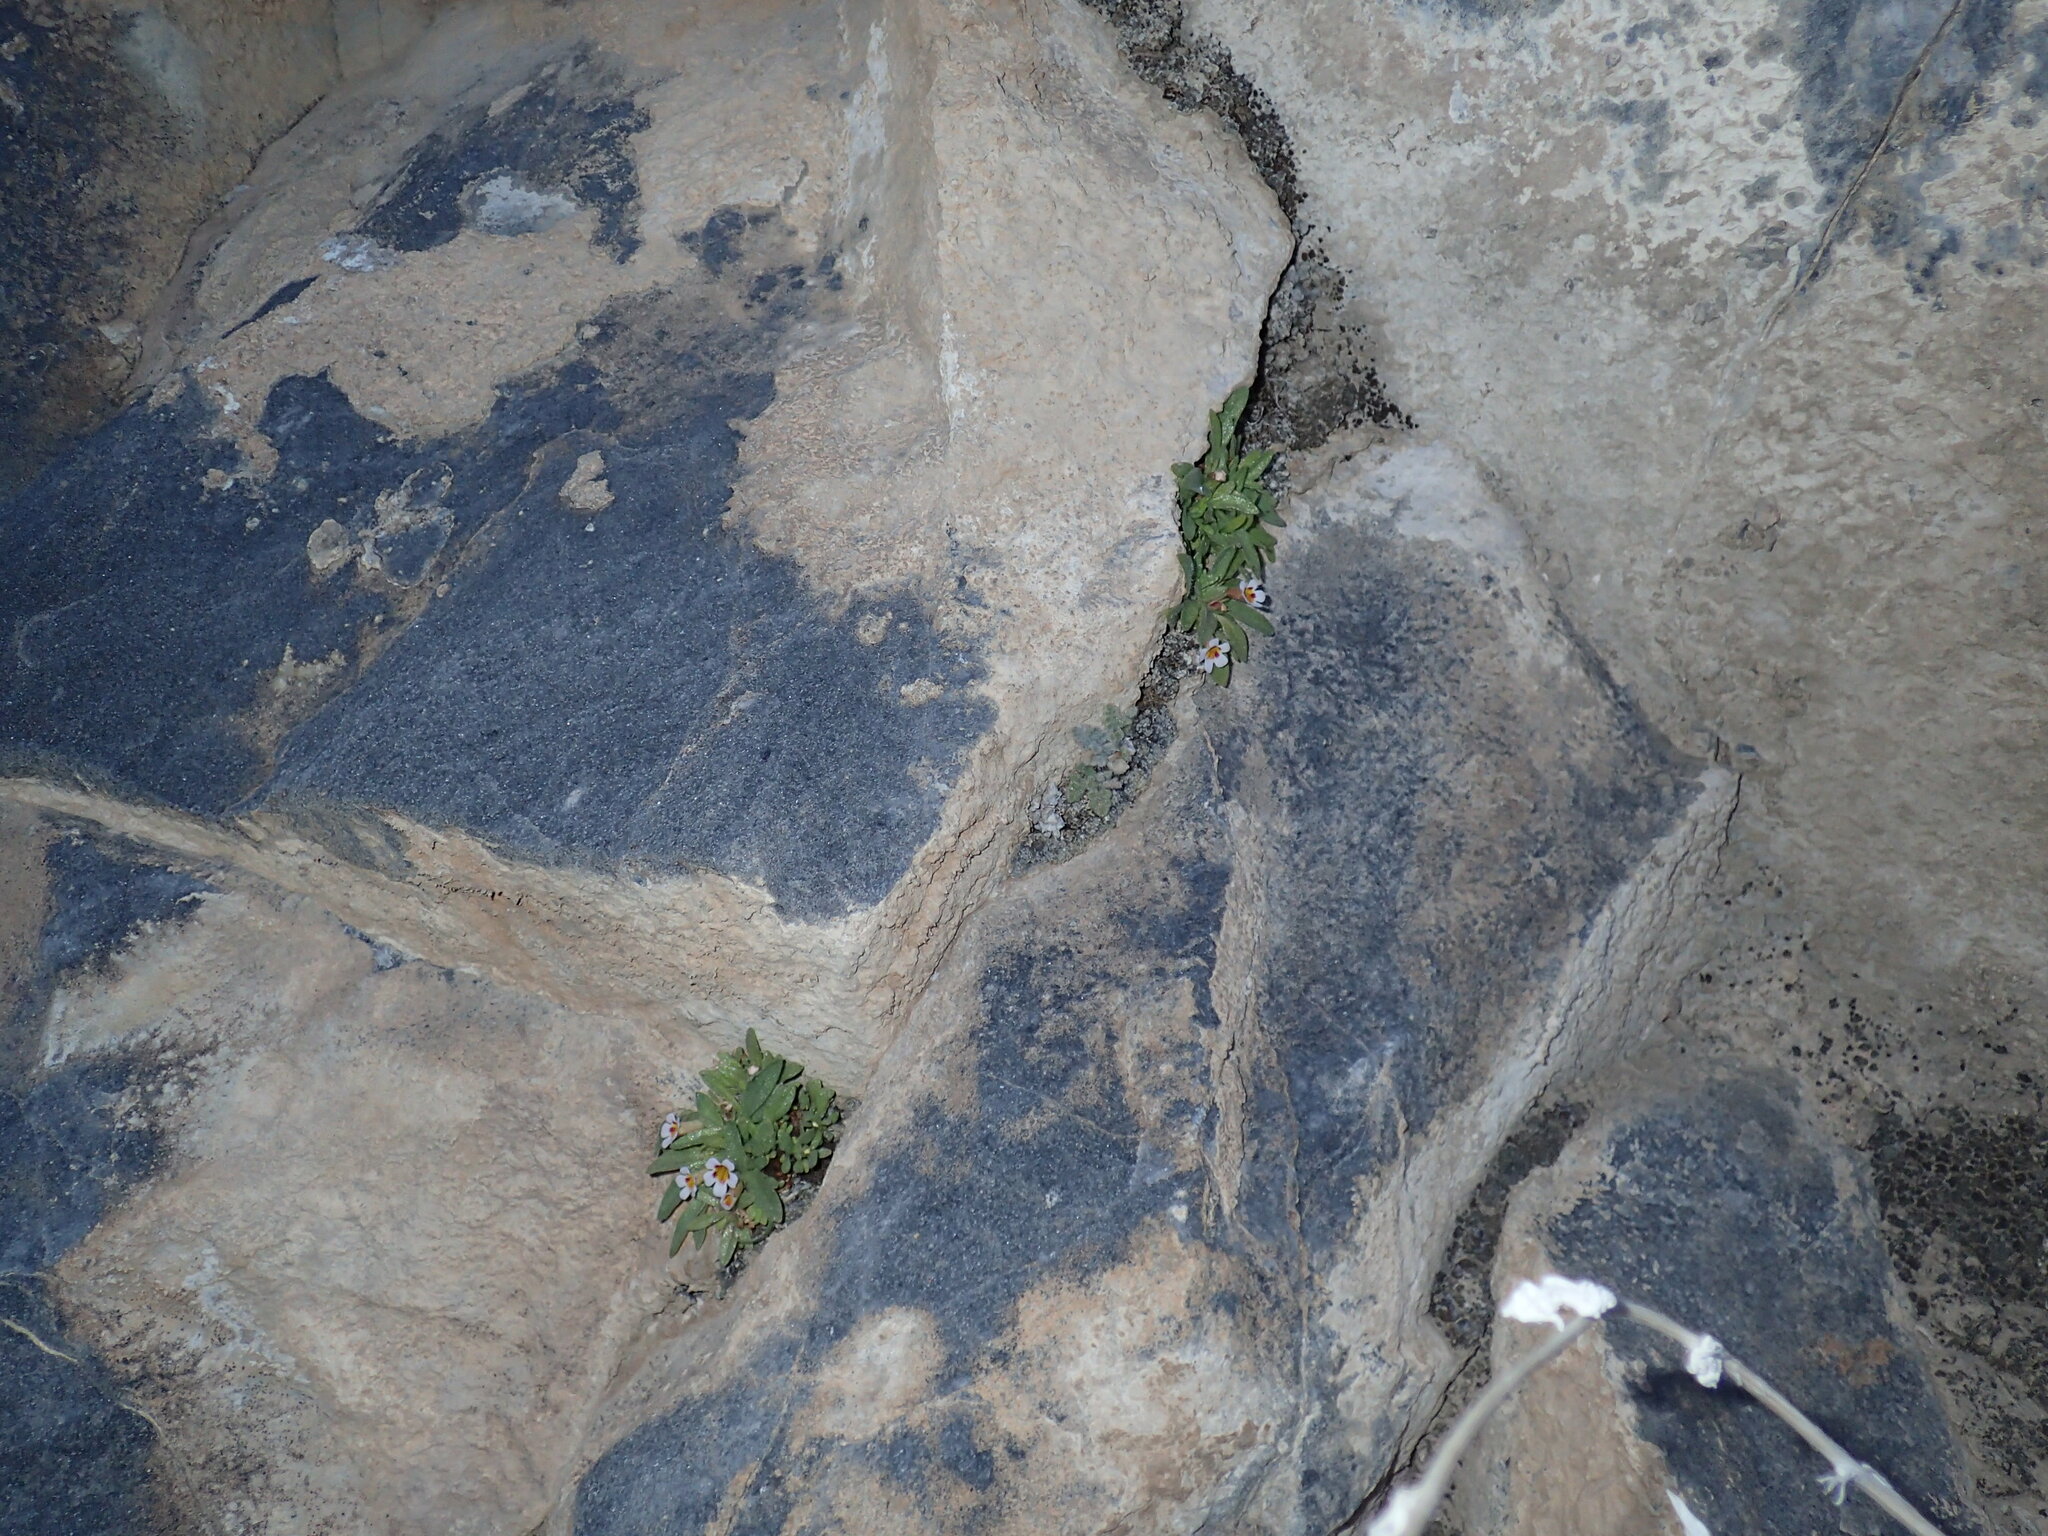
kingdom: Plantae
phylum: Tracheophyta
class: Magnoliopsida
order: Lamiales
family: Phrymaceae
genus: Diplacus
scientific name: Diplacus rupicola
